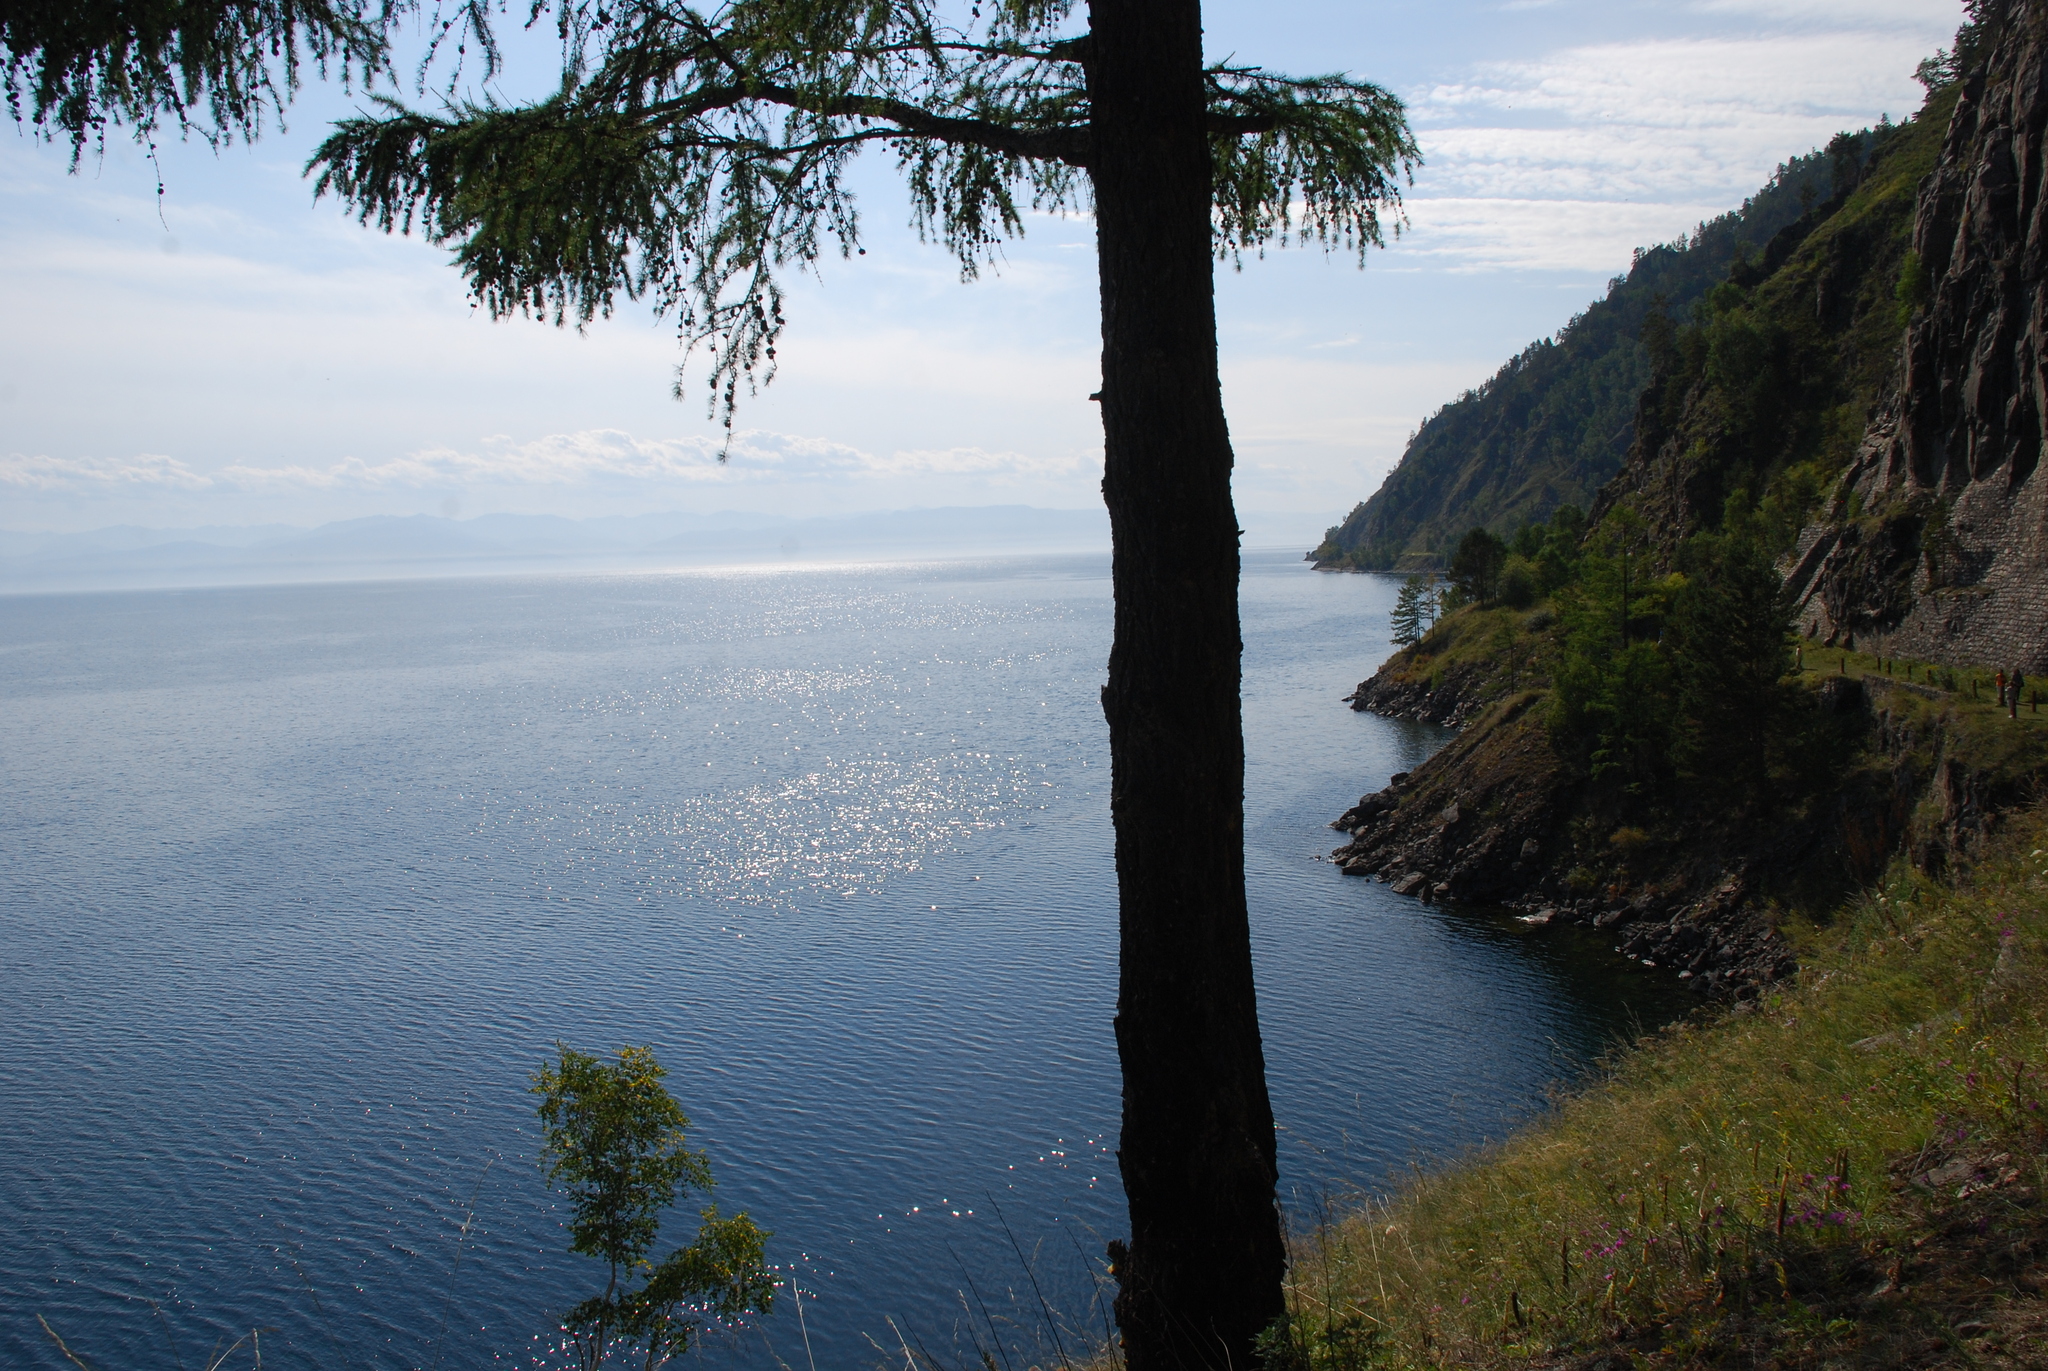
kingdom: Plantae
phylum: Tracheophyta
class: Pinopsida
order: Pinales
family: Pinaceae
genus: Larix
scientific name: Larix sibirica
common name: Siberian larch
